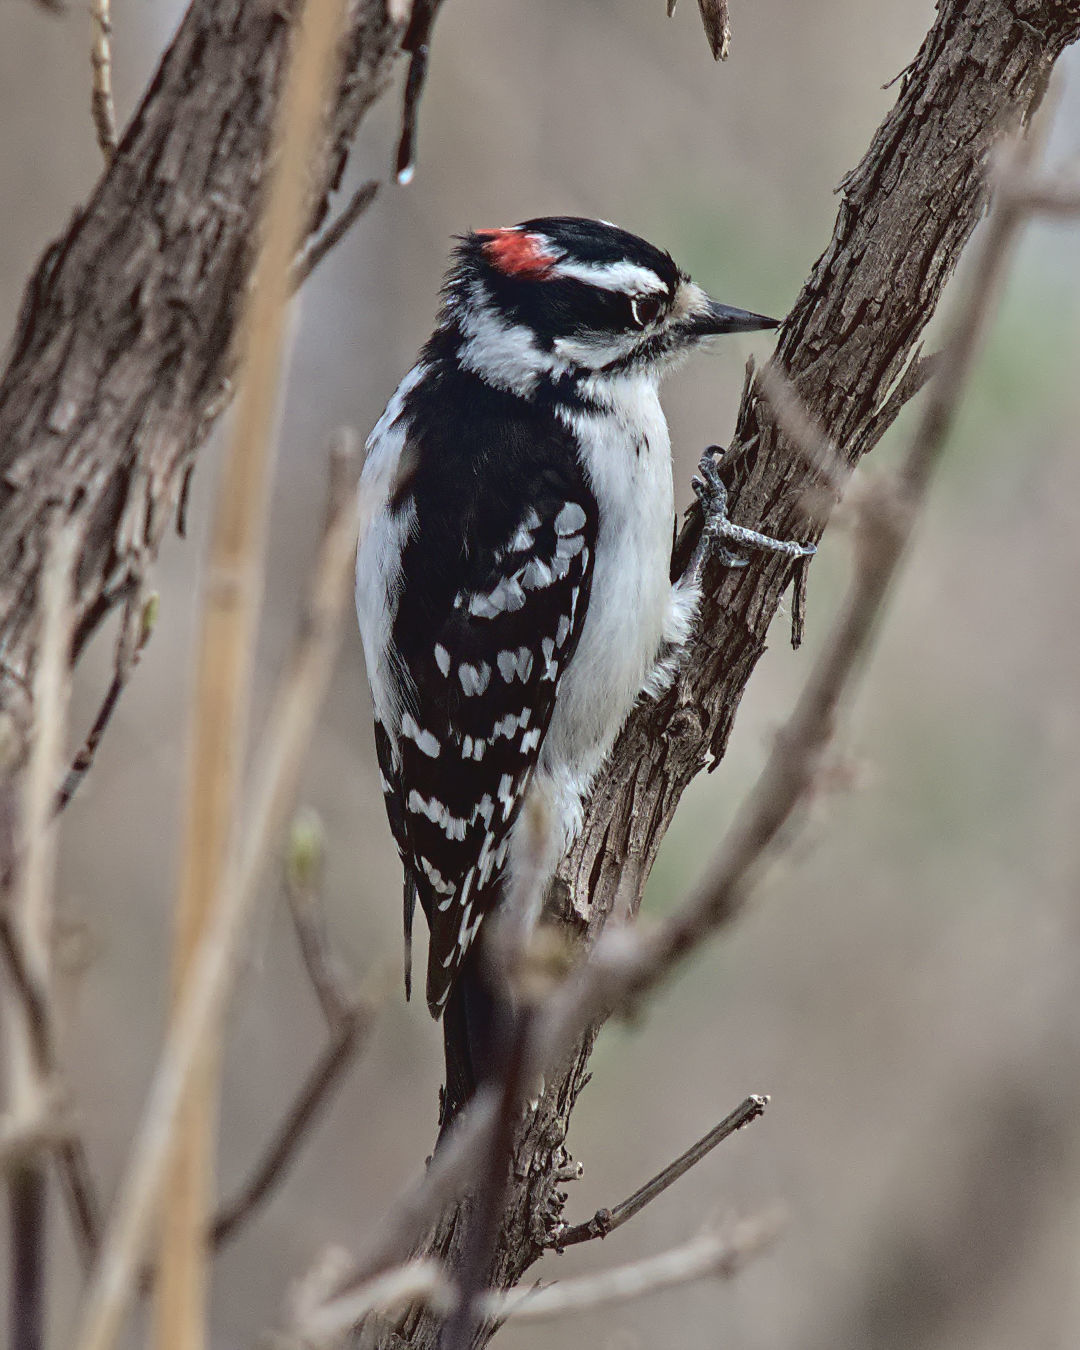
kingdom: Animalia
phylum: Chordata
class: Aves
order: Piciformes
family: Picidae
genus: Dryobates
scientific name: Dryobates pubescens
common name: Downy woodpecker
